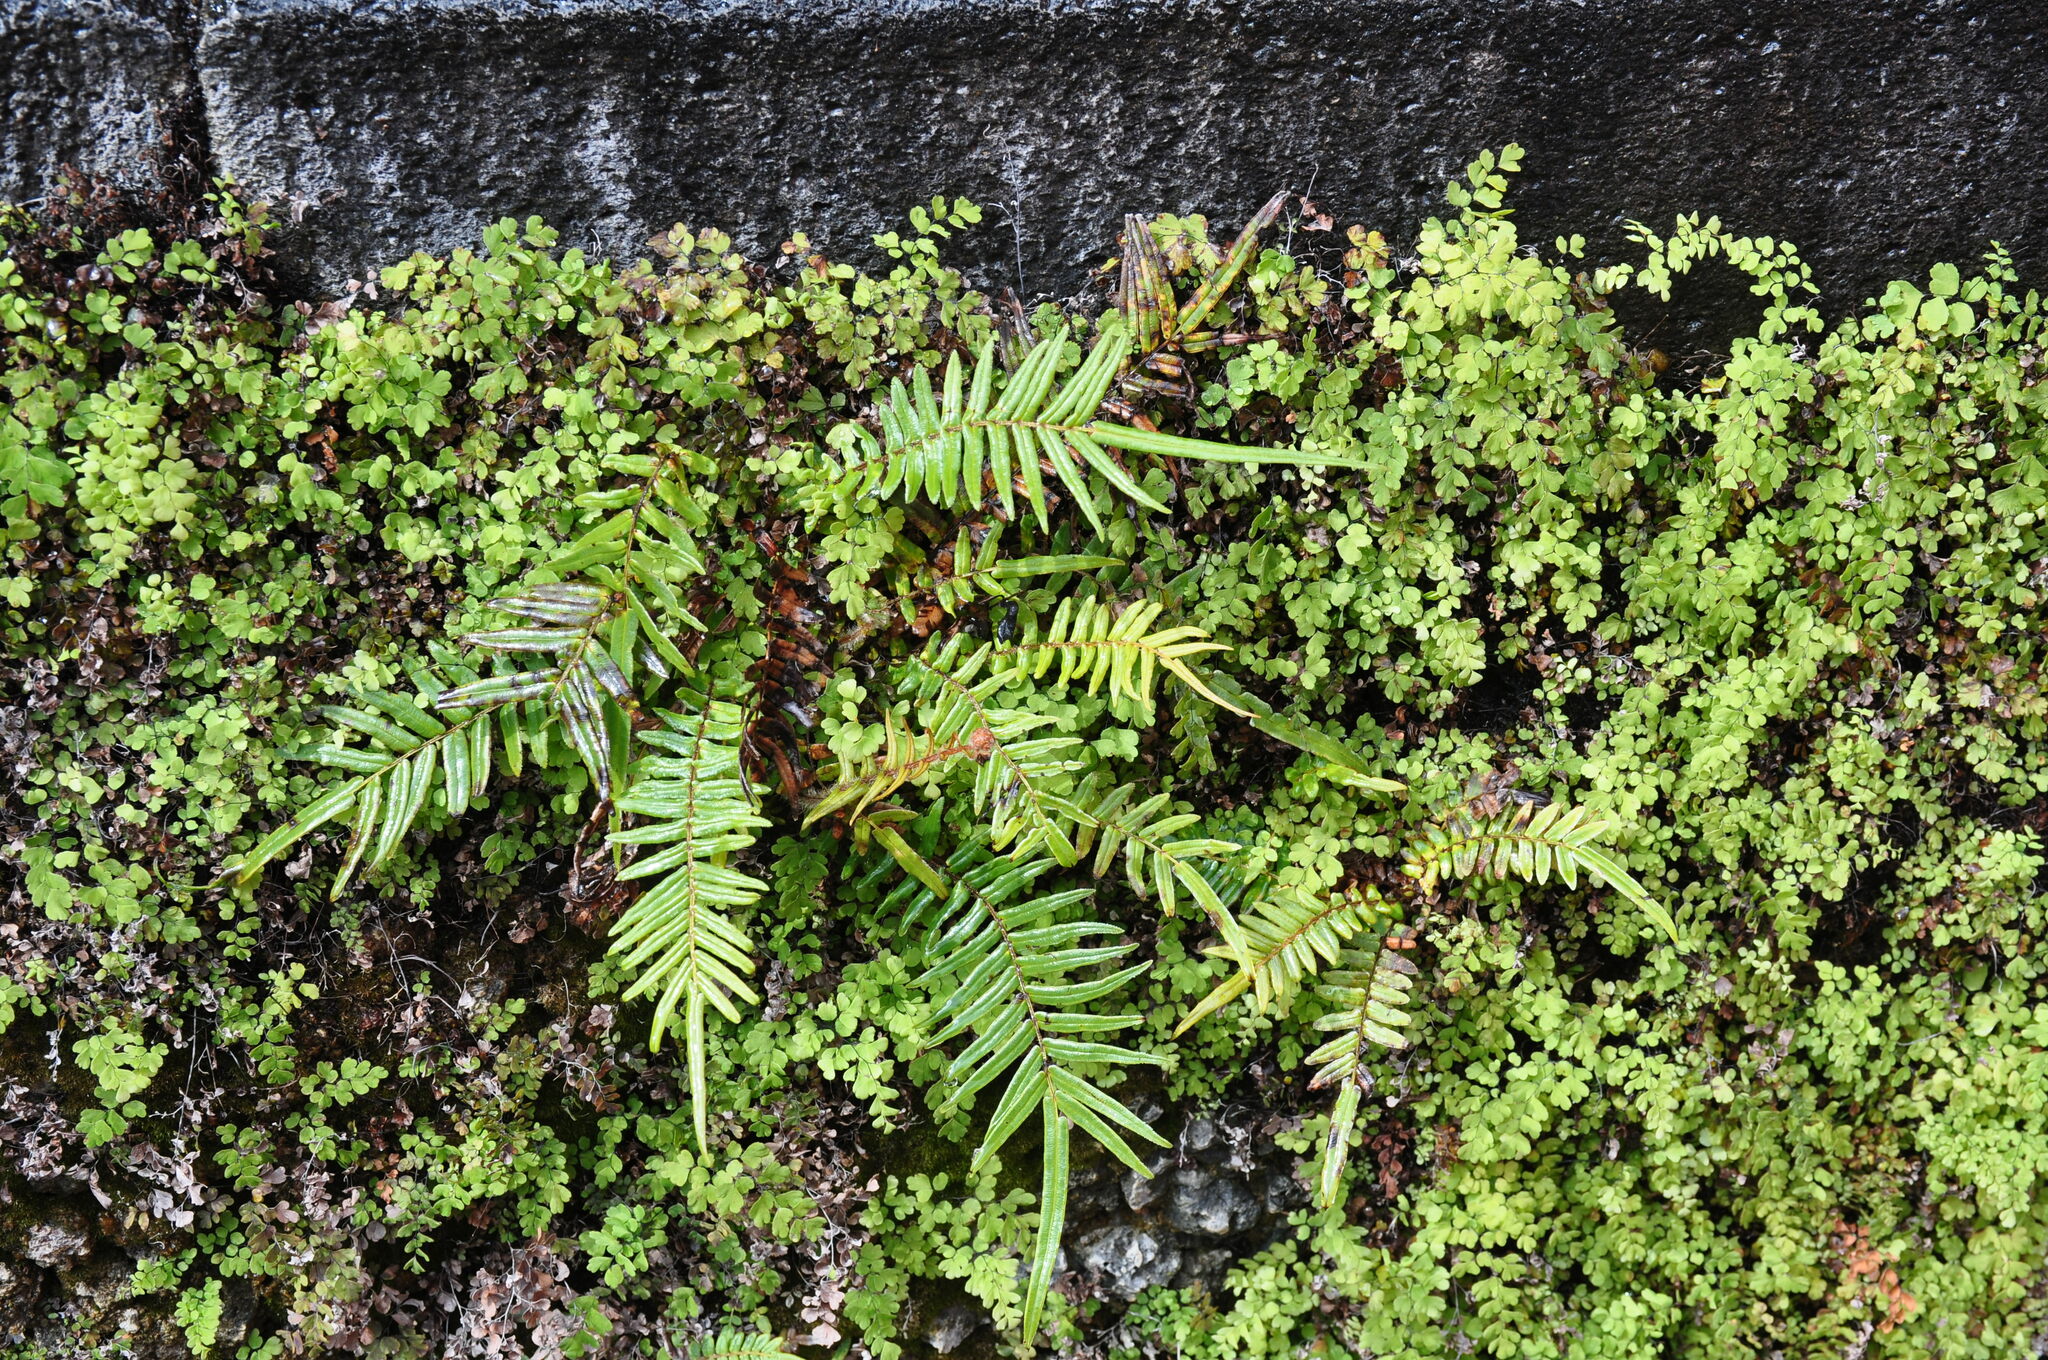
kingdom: Plantae
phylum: Tracheophyta
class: Polypodiopsida
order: Polypodiales
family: Pteridaceae
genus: Pteris
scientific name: Pteris vittata
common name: Ladder brake
